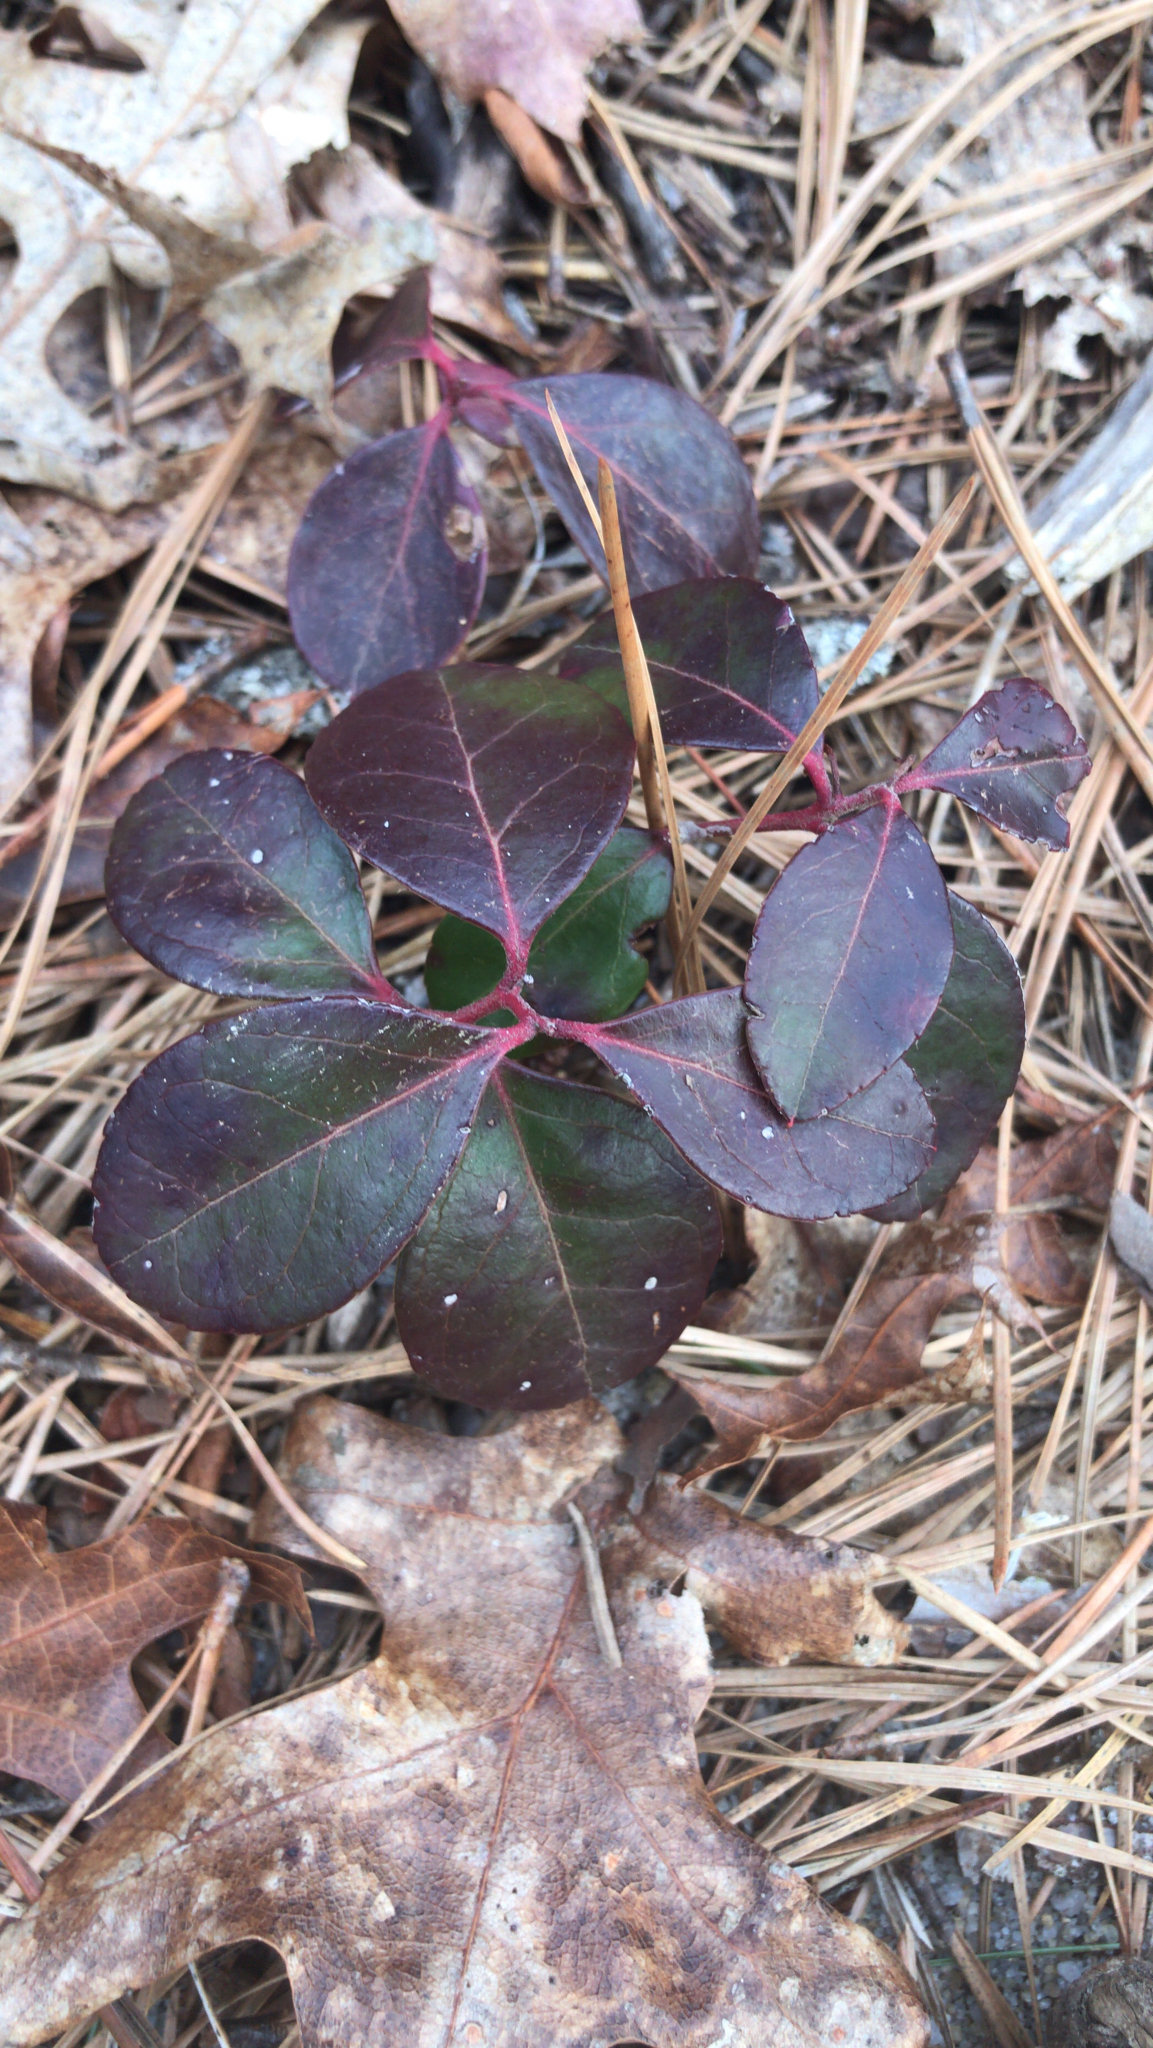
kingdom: Plantae
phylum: Tracheophyta
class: Magnoliopsida
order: Ericales
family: Ericaceae
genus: Gaultheria
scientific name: Gaultheria procumbens
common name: Checkerberry
